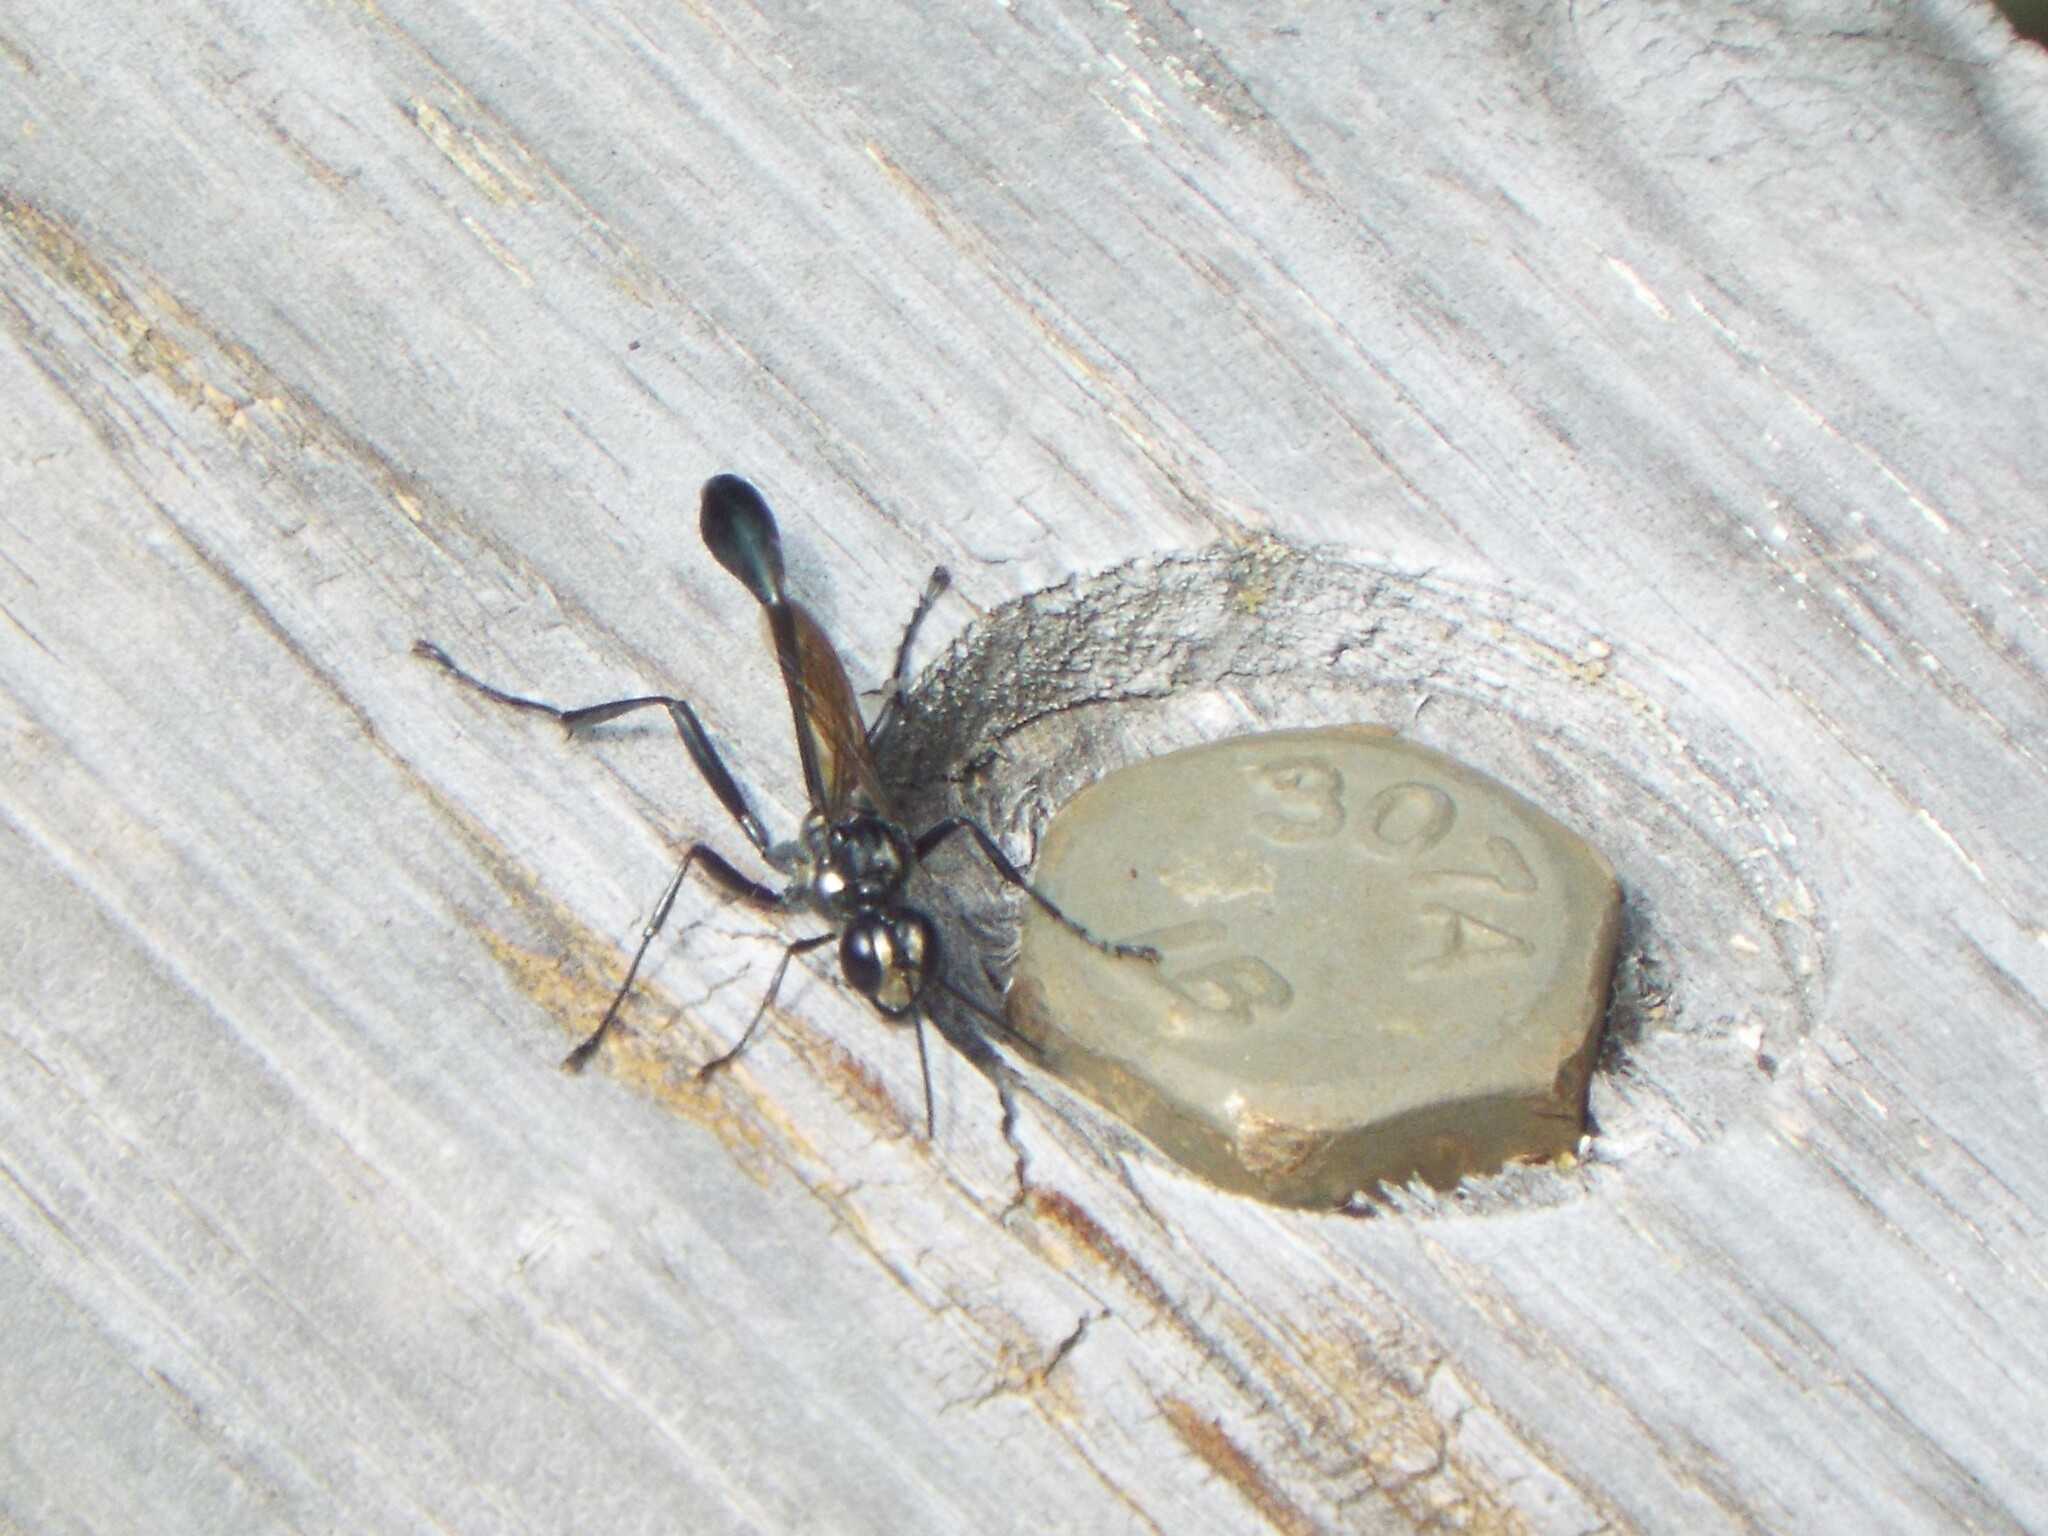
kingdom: Animalia
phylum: Arthropoda
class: Insecta
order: Hymenoptera
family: Sphecidae
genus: Eremnophila
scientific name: Eremnophila aureonotata
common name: Gold-marked thread-waisted wasp
